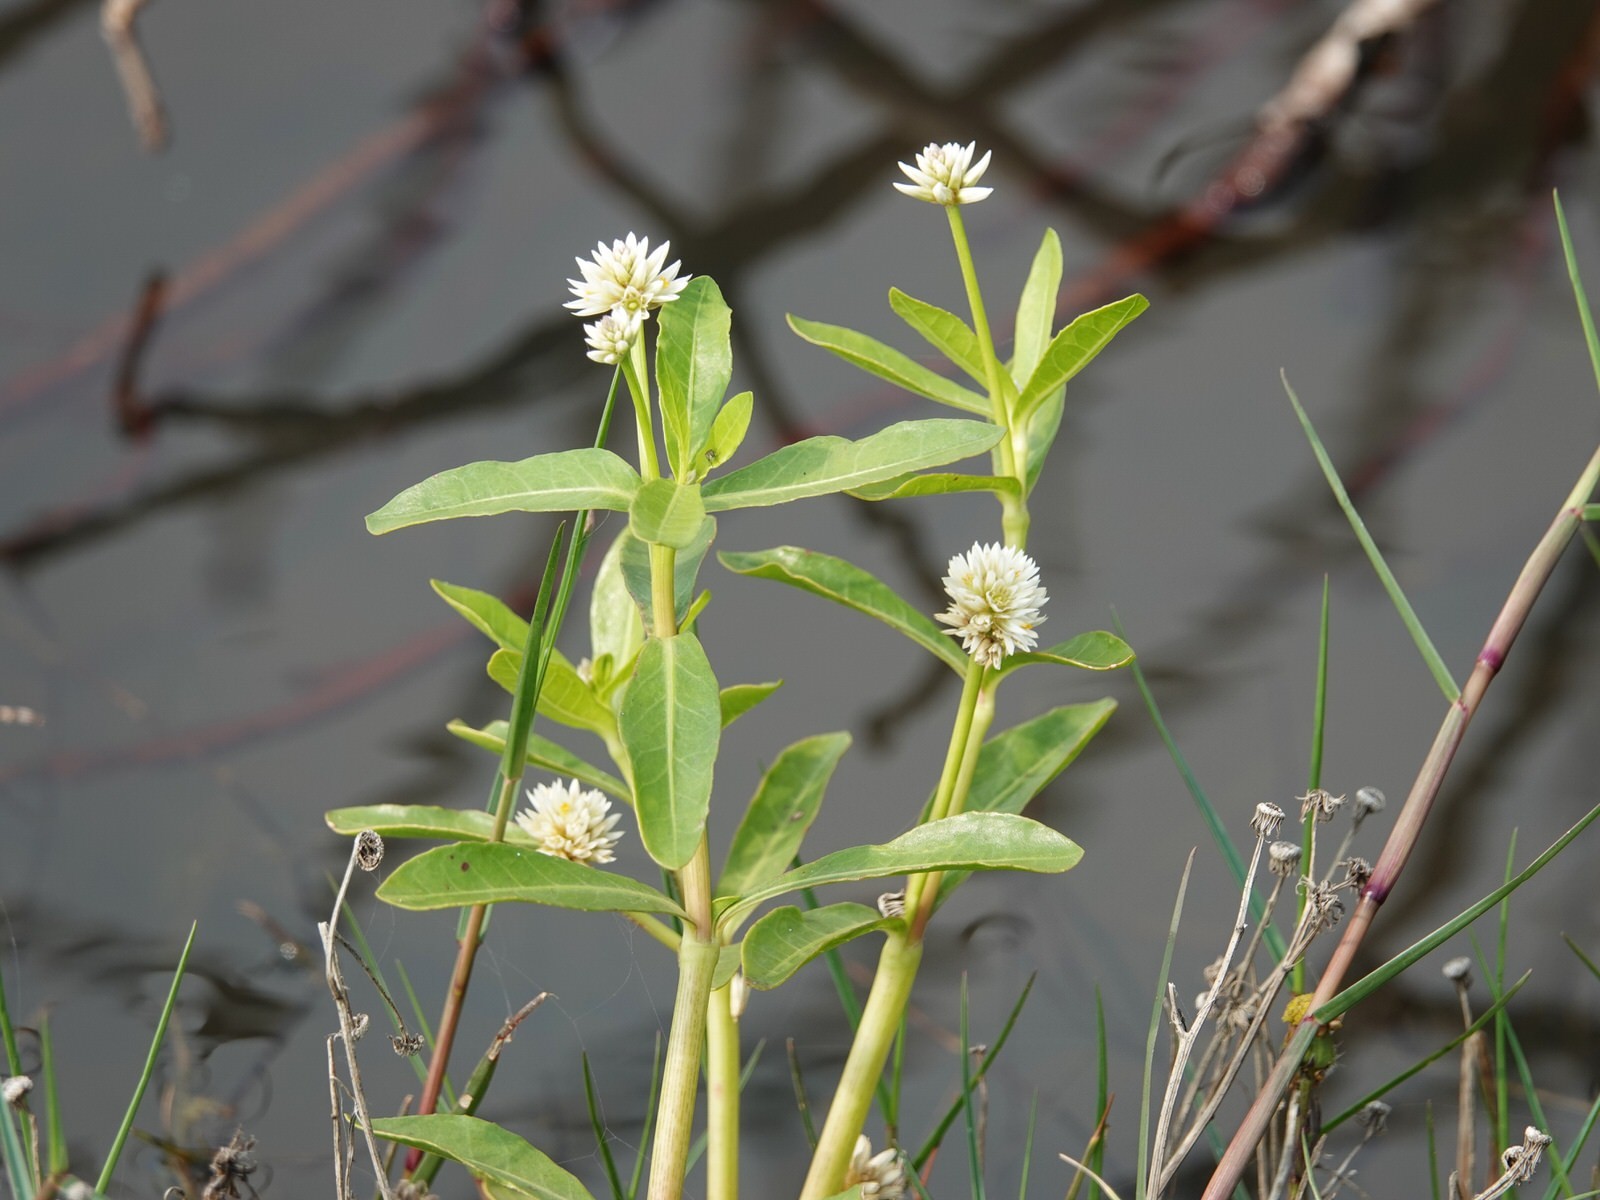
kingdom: Plantae
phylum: Tracheophyta
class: Magnoliopsida
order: Caryophyllales
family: Amaranthaceae
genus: Alternanthera
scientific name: Alternanthera philoxeroides
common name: Alligatorweed
